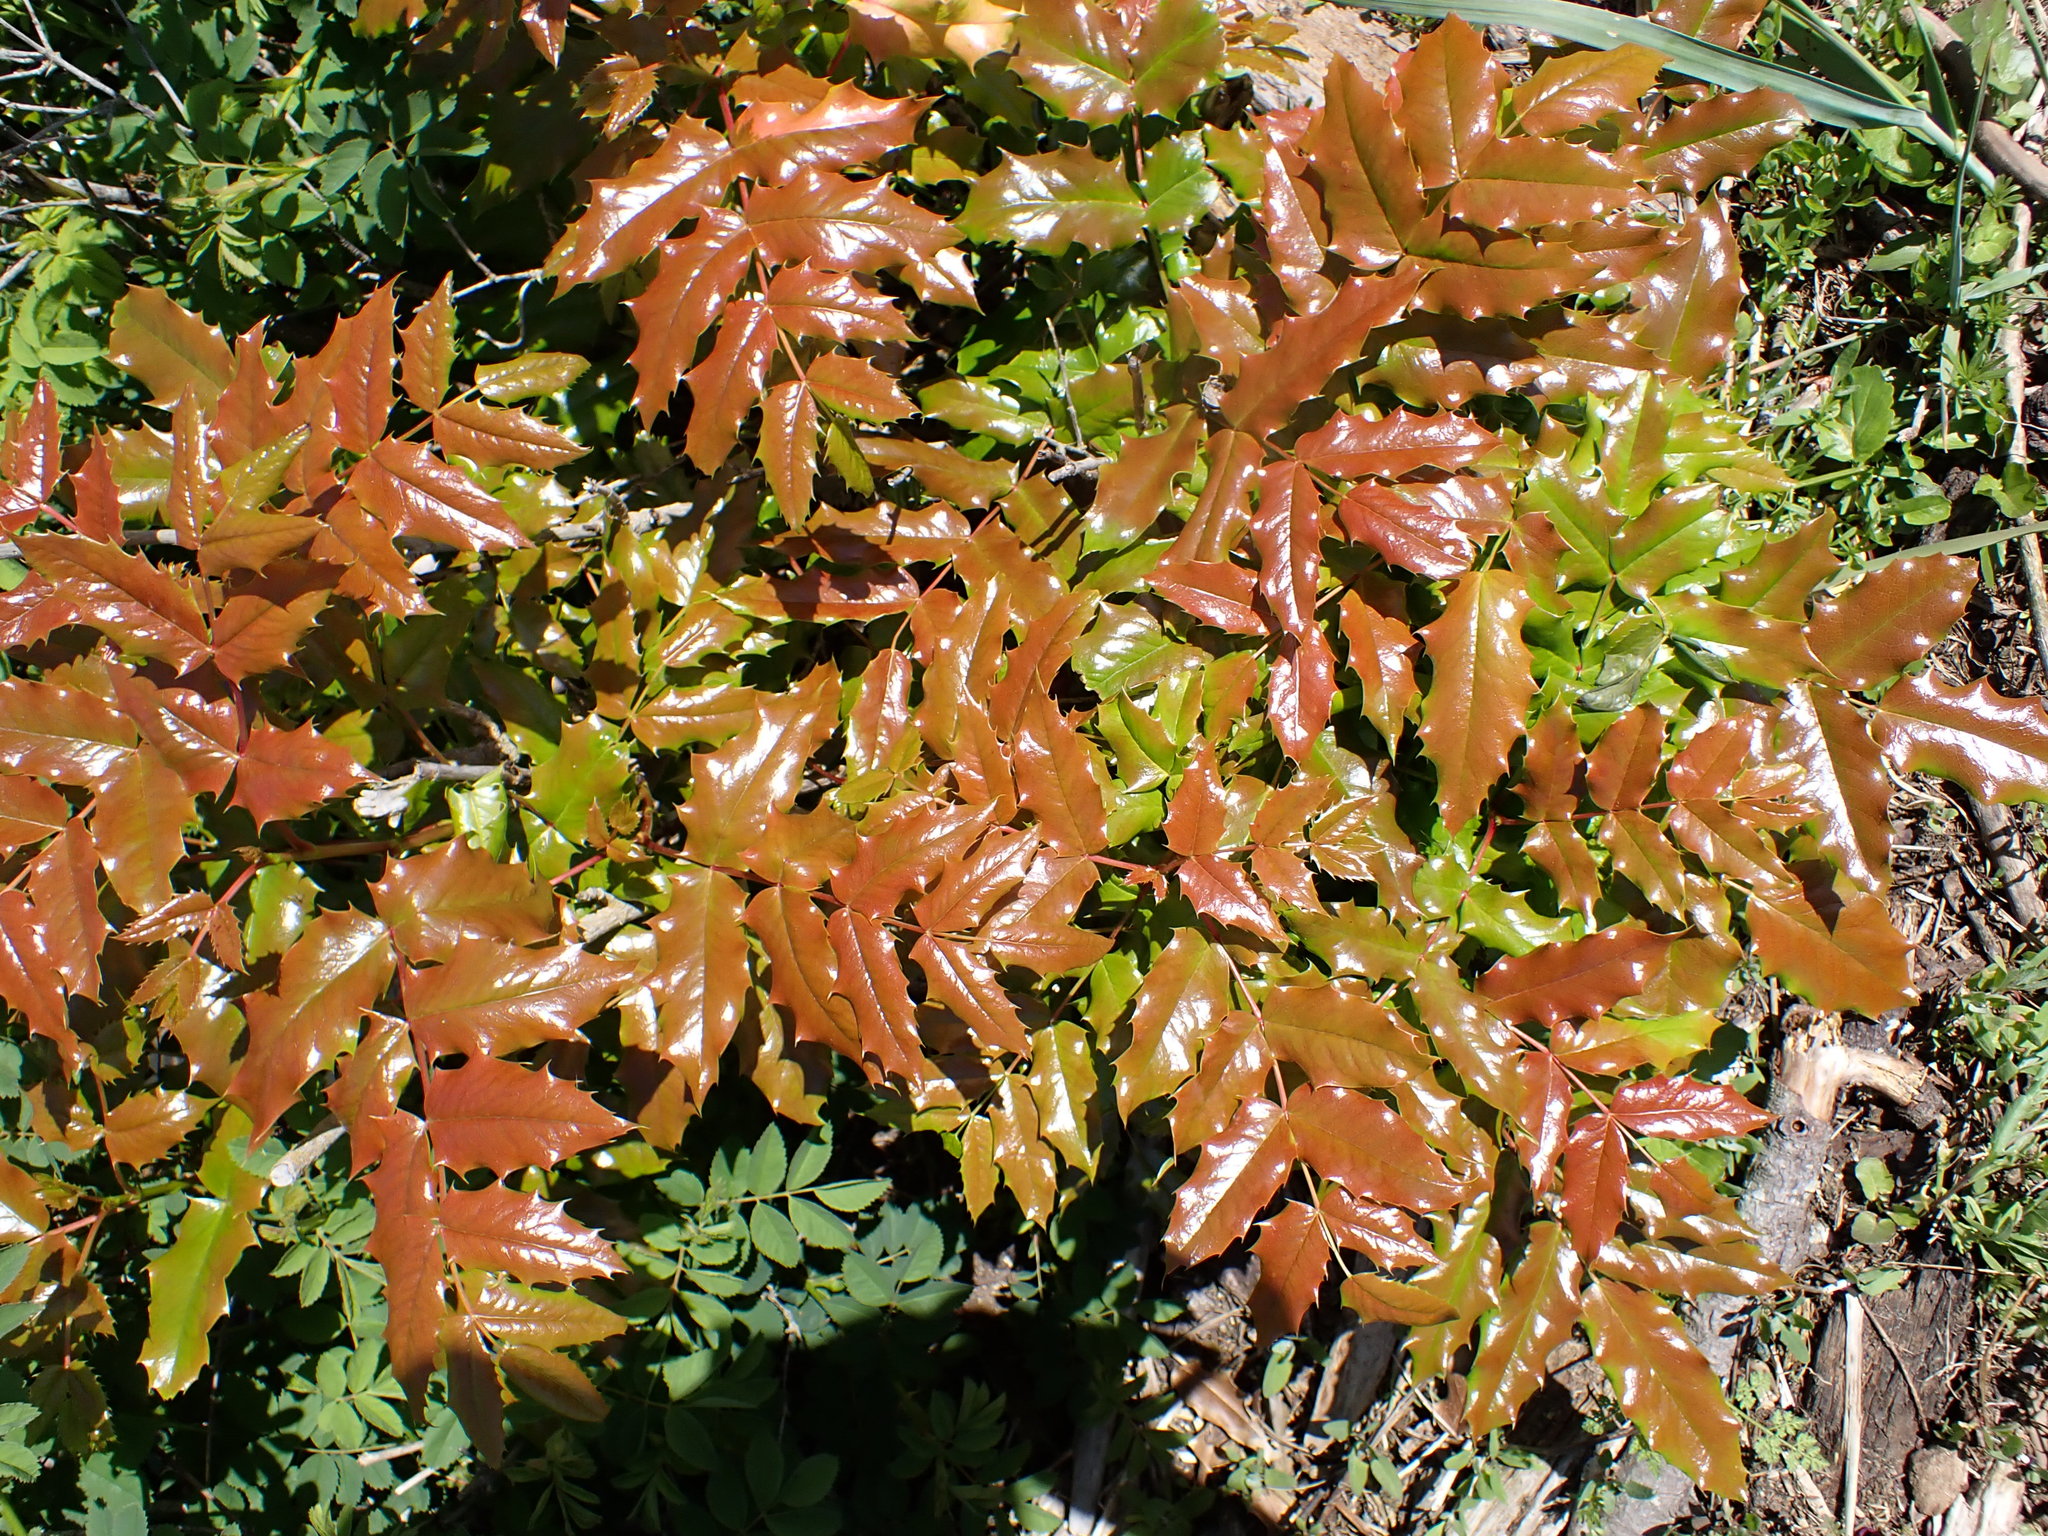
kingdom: Plantae
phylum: Tracheophyta
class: Magnoliopsida
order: Ranunculales
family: Berberidaceae
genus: Mahonia
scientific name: Mahonia aquifolium
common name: Oregon-grape
